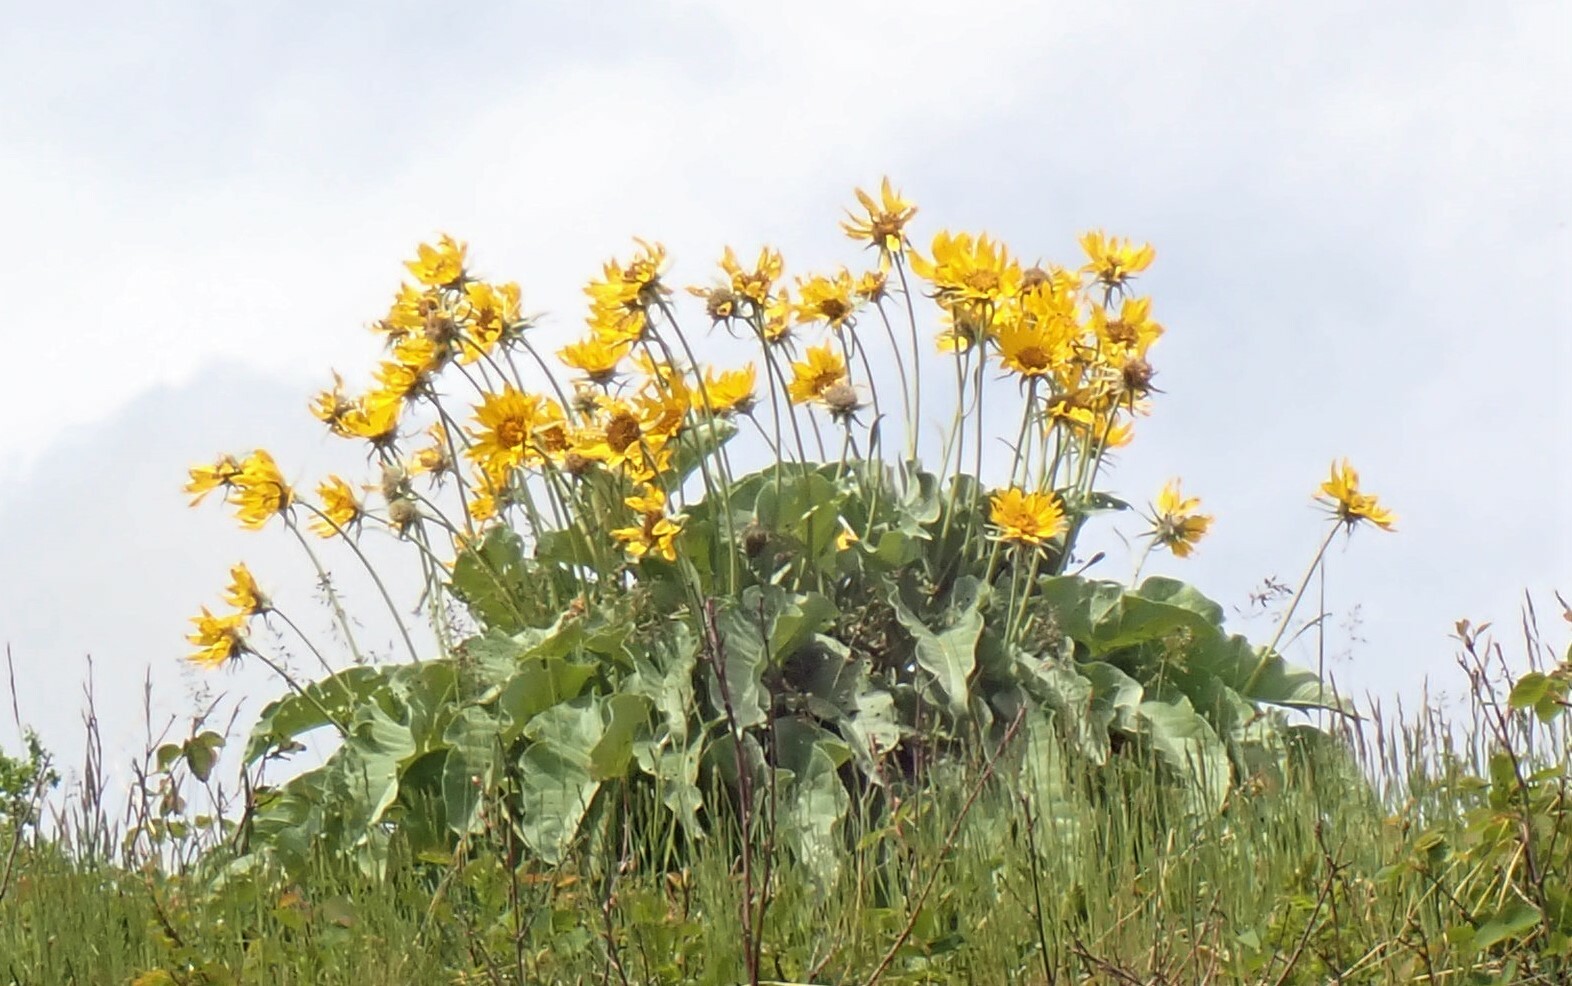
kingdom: Plantae
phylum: Tracheophyta
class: Magnoliopsida
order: Asterales
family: Asteraceae
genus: Wyethia
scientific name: Wyethia sagittata
